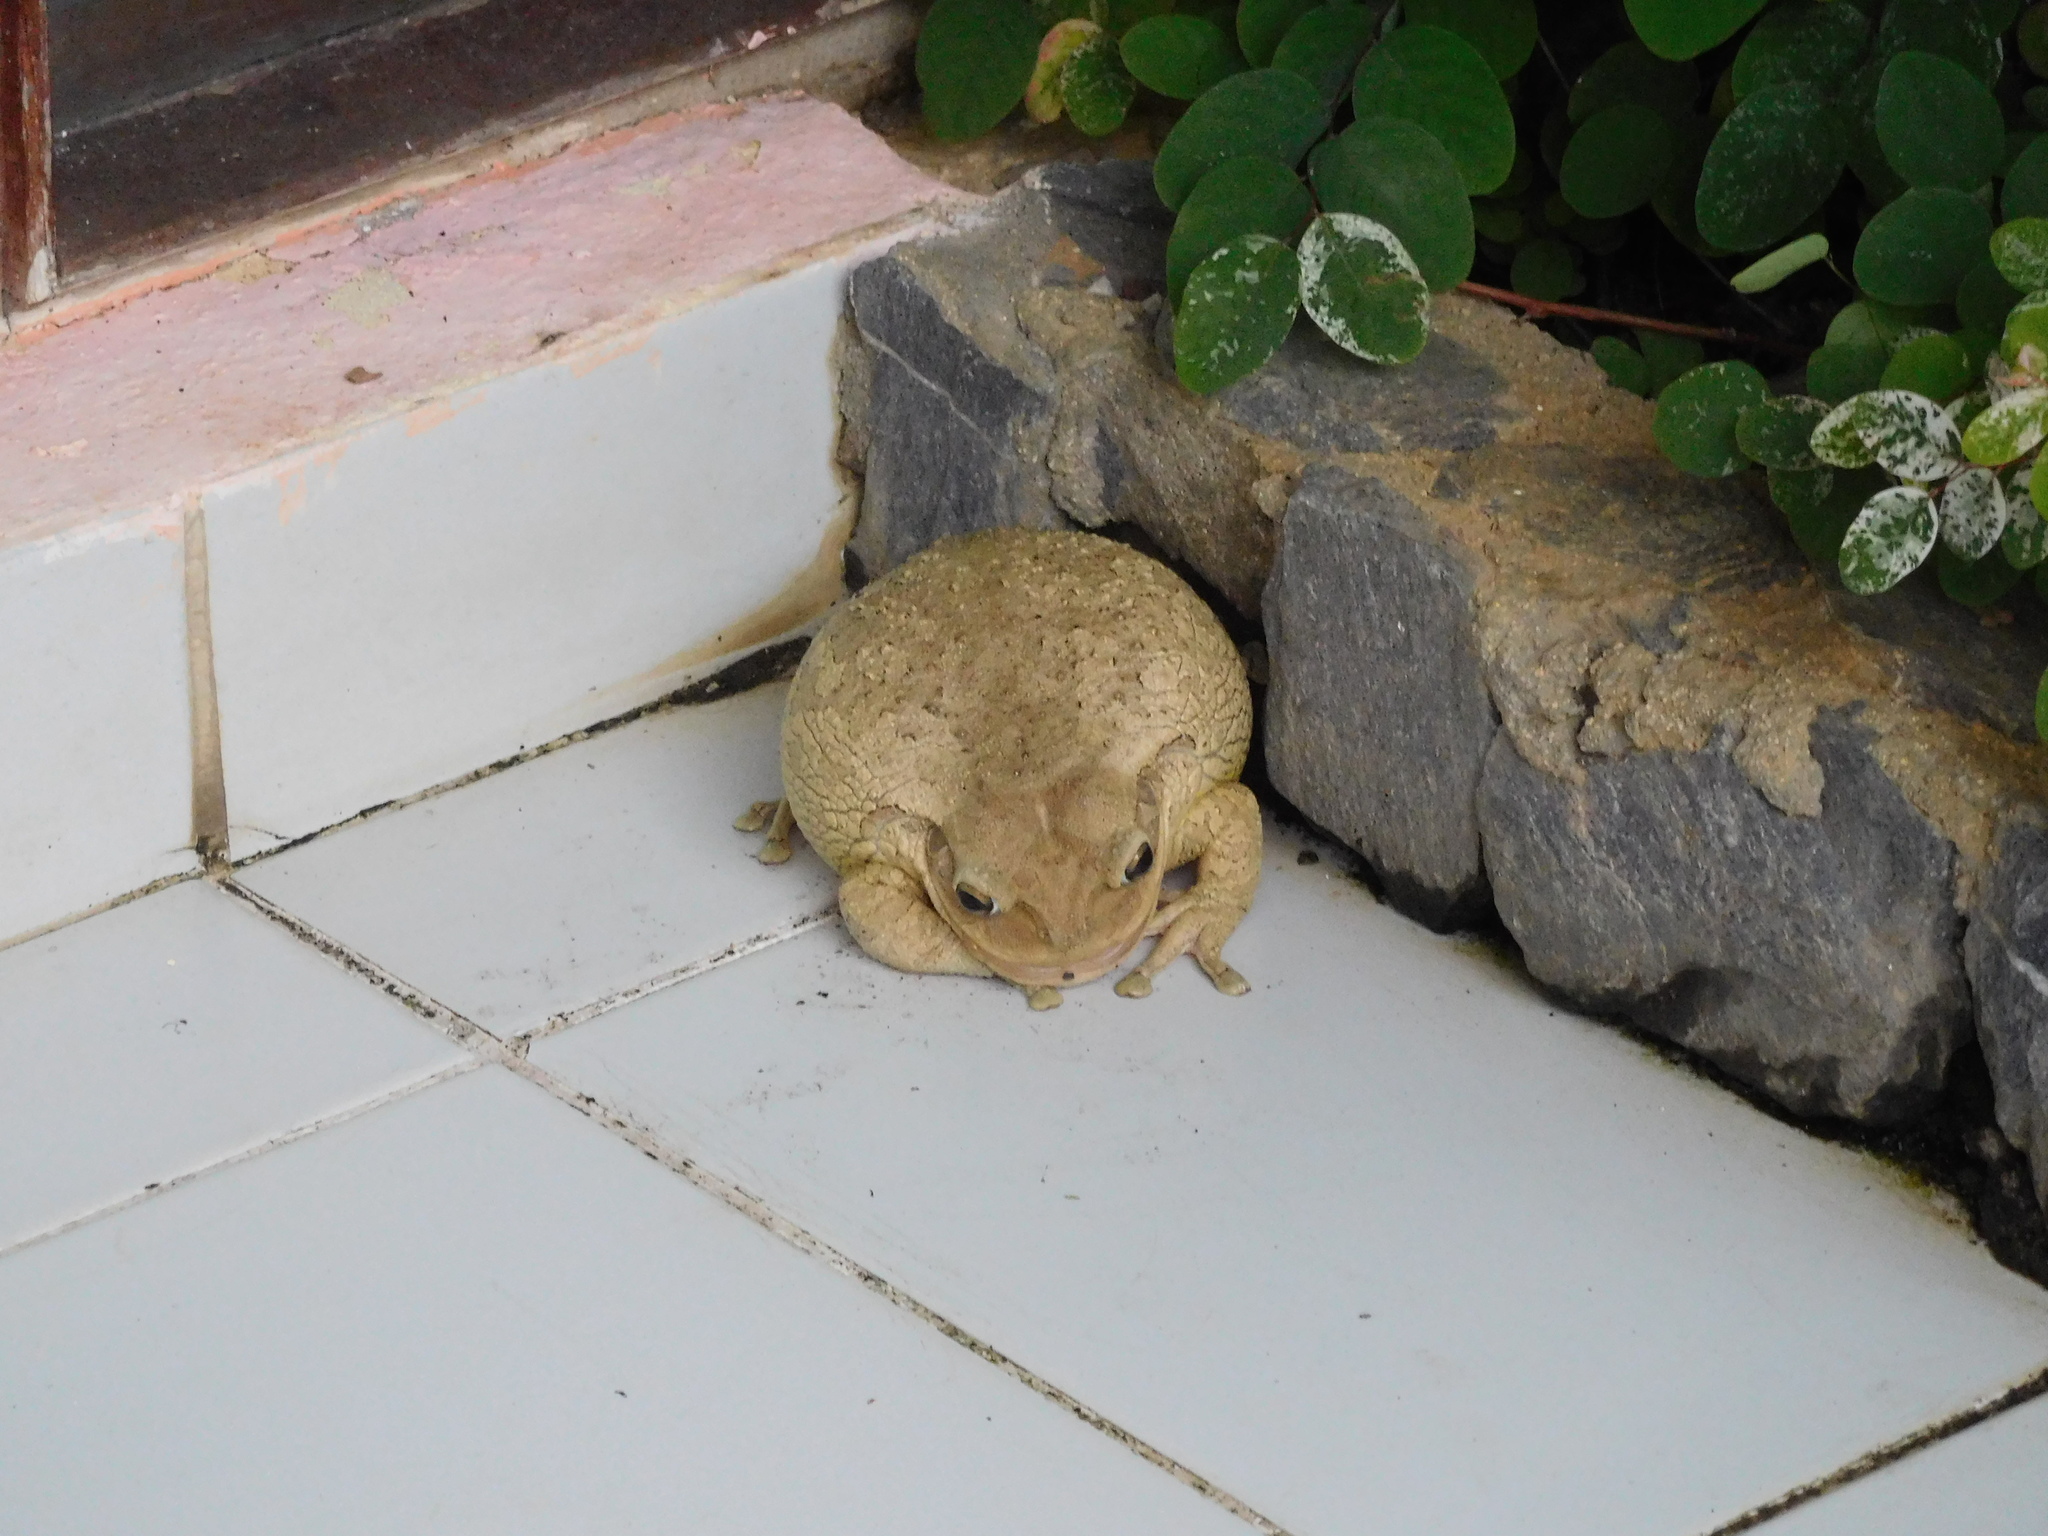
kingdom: Animalia
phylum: Chordata
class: Amphibia
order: Anura
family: Hylidae
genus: Osteopilus
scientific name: Osteopilus septentrionalis
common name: Cuban treefrog
